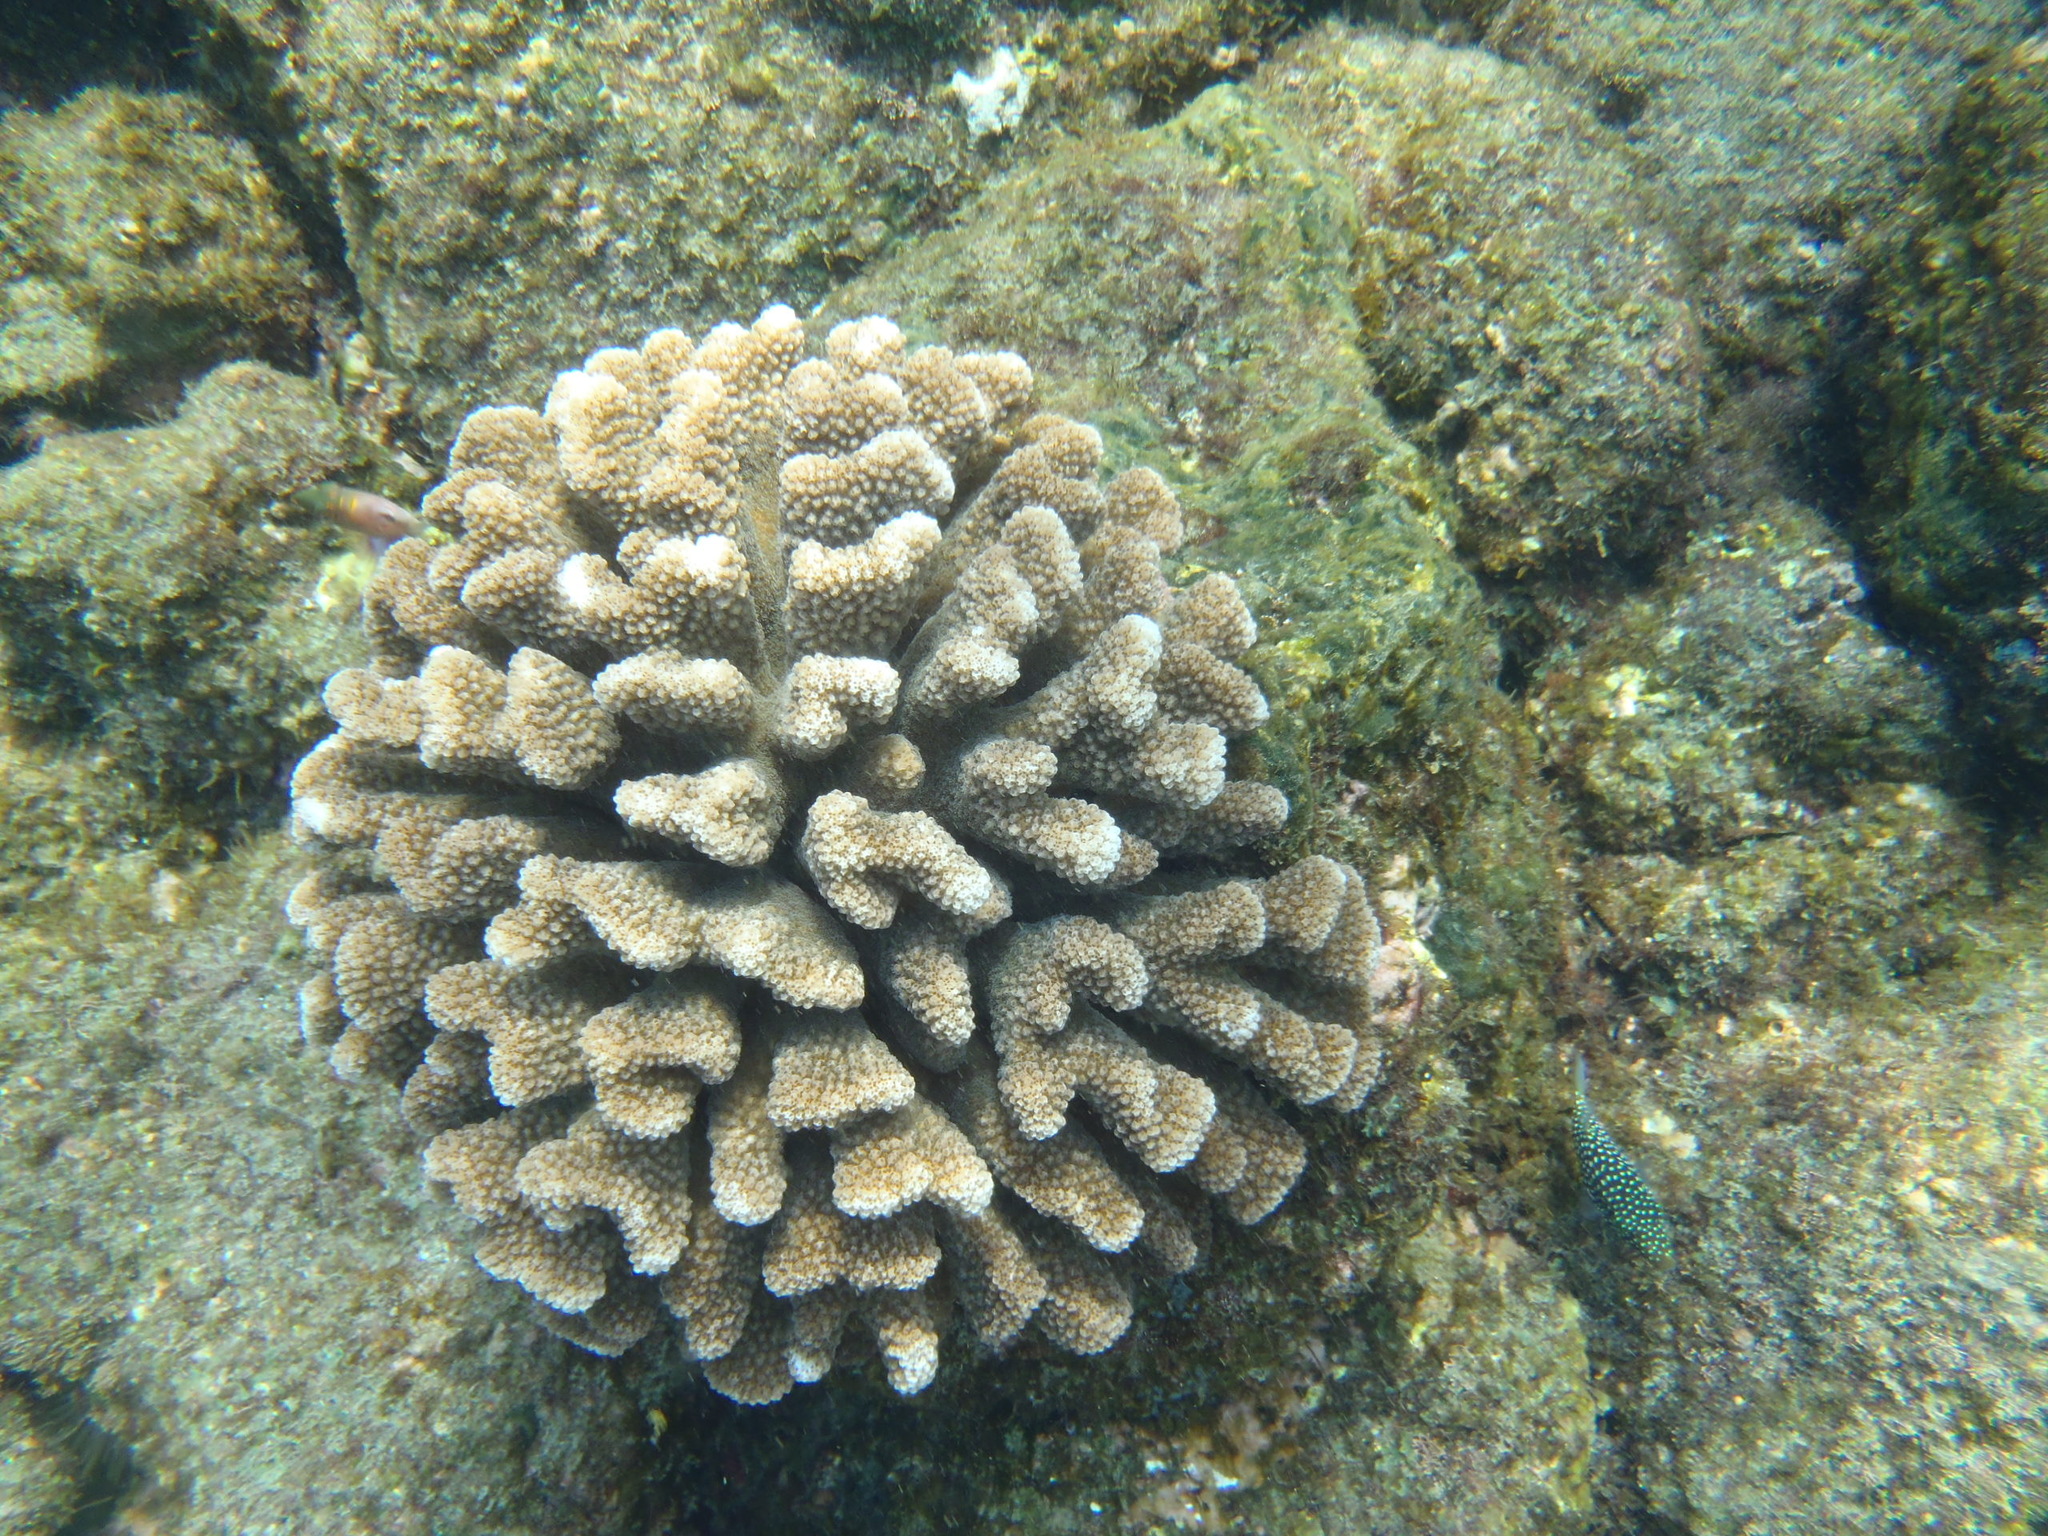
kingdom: Animalia
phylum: Cnidaria
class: Anthozoa
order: Scleractinia
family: Pocilloporidae
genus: Pocillopora
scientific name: Pocillopora meandrina
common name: Cauliflower coral
